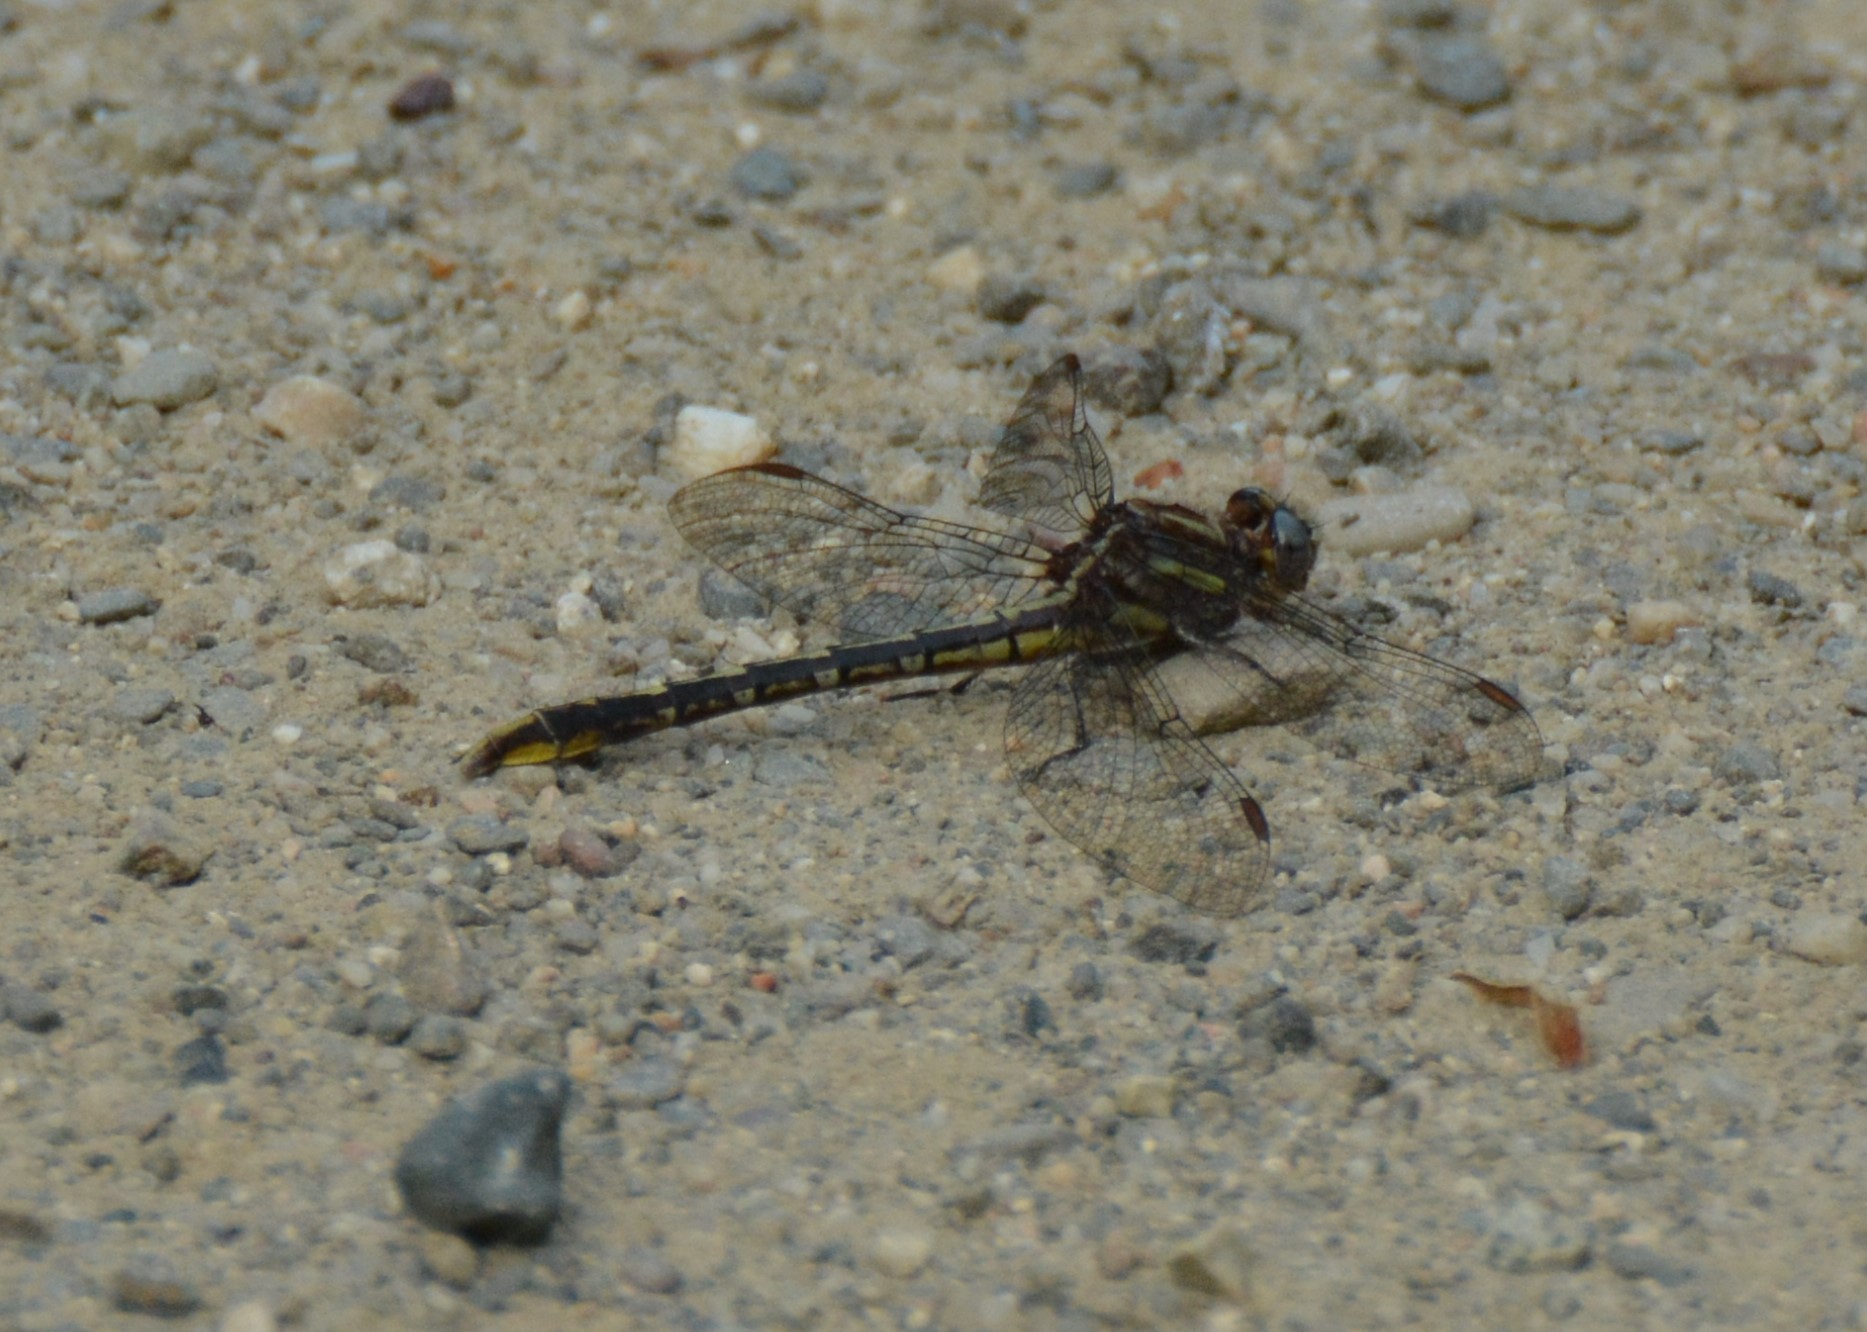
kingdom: Animalia
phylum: Arthropoda
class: Insecta
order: Odonata
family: Gomphidae
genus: Phanogomphus
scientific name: Phanogomphus exilis
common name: Lancet clubtail
